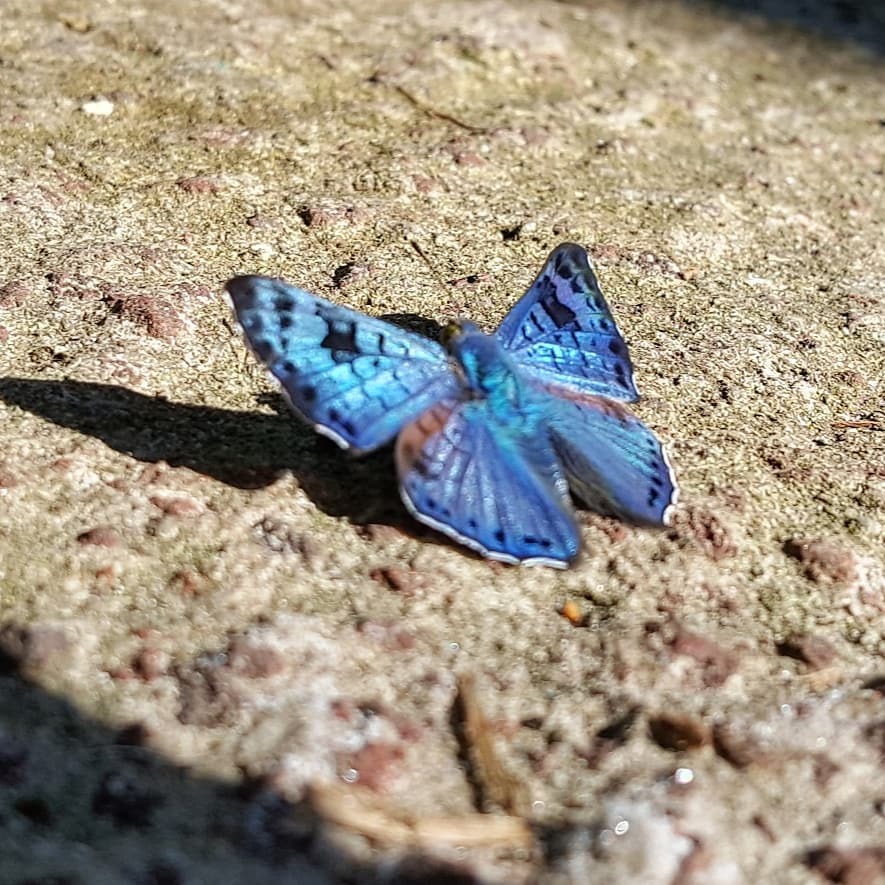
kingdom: Animalia
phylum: Arthropoda
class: Insecta
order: Lepidoptera
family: Riodinidae
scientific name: Riodinidae
